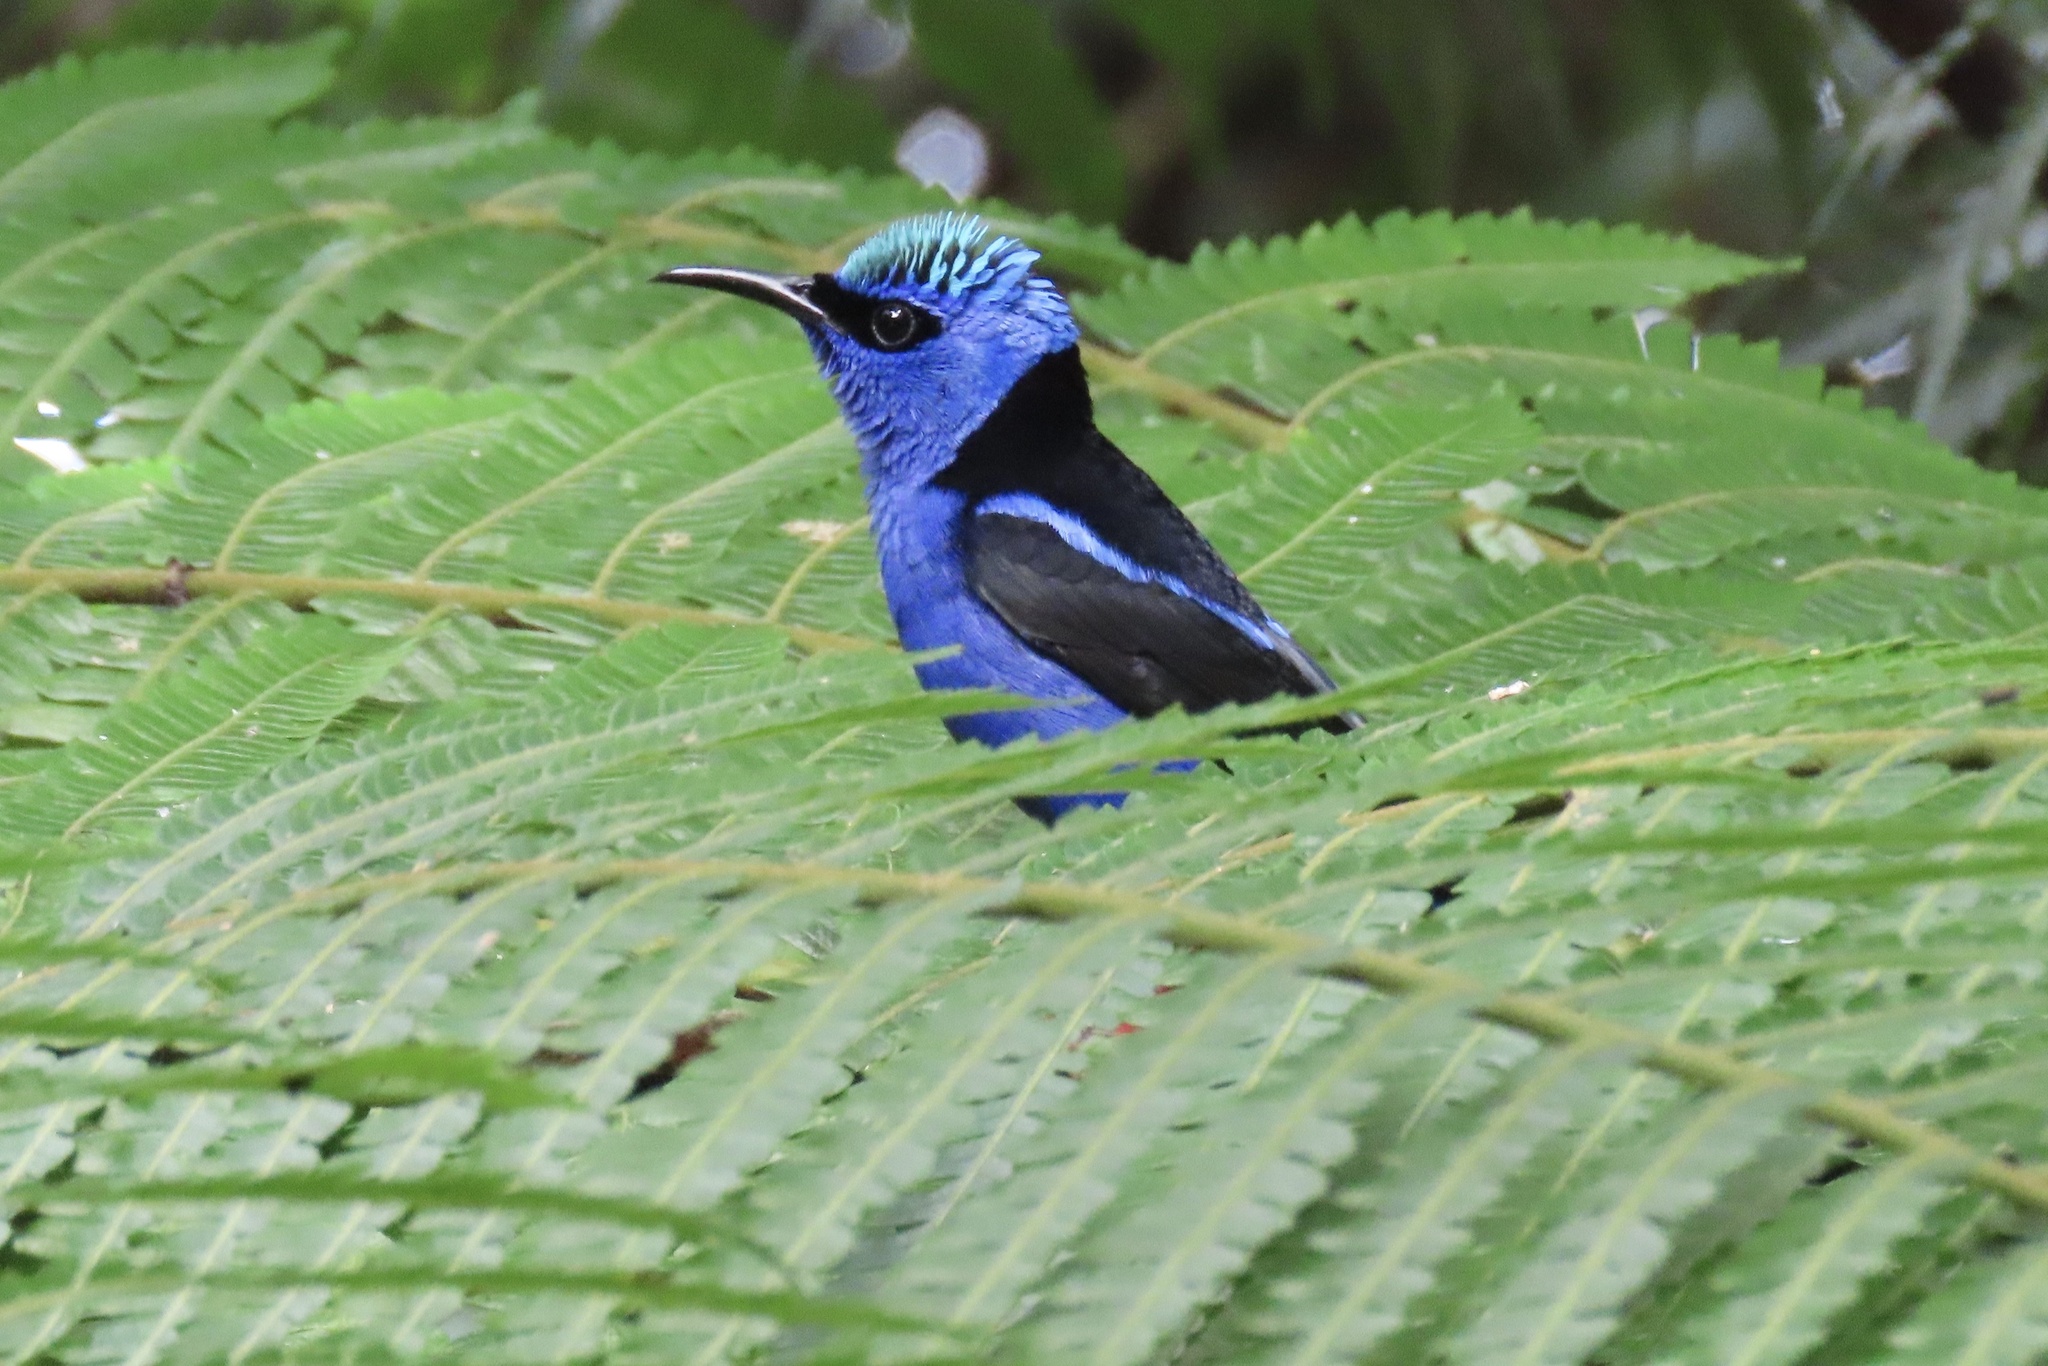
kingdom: Animalia
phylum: Chordata
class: Aves
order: Passeriformes
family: Thraupidae
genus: Cyanerpes
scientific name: Cyanerpes cyaneus
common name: Red-legged honeycreeper
